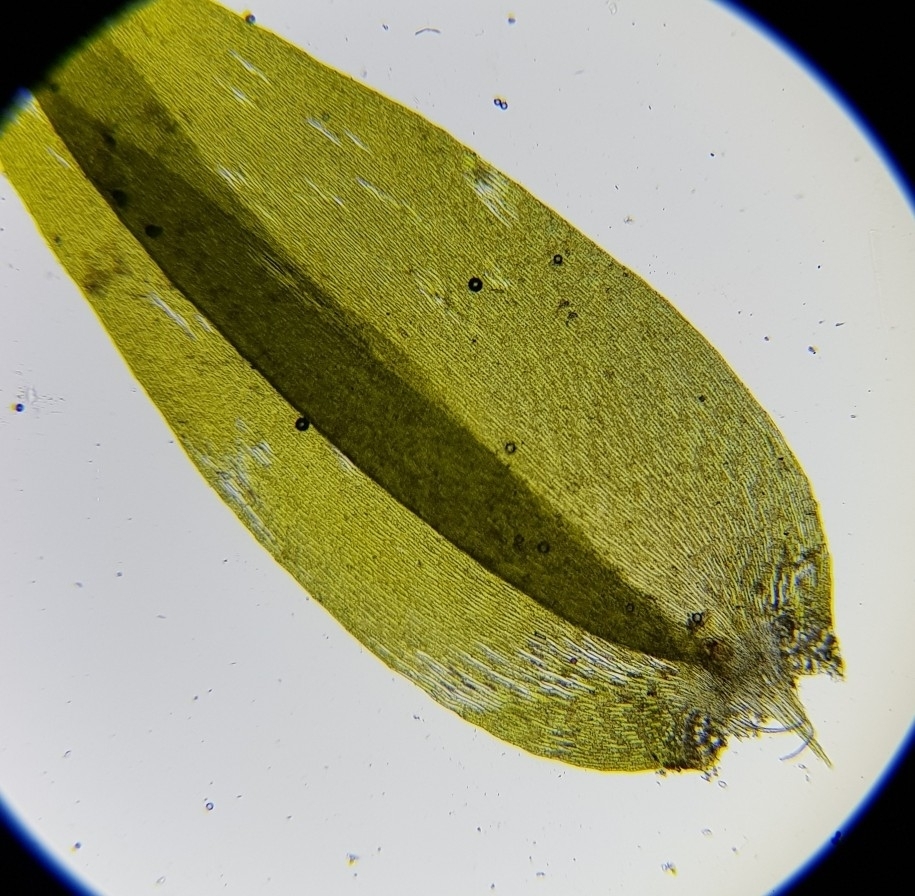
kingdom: Plantae
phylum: Bryophyta
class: Bryopsida
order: Hypnales
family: Fontinalaceae
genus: Fontinalis
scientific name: Fontinalis antipyretica
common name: Greater water-moss
